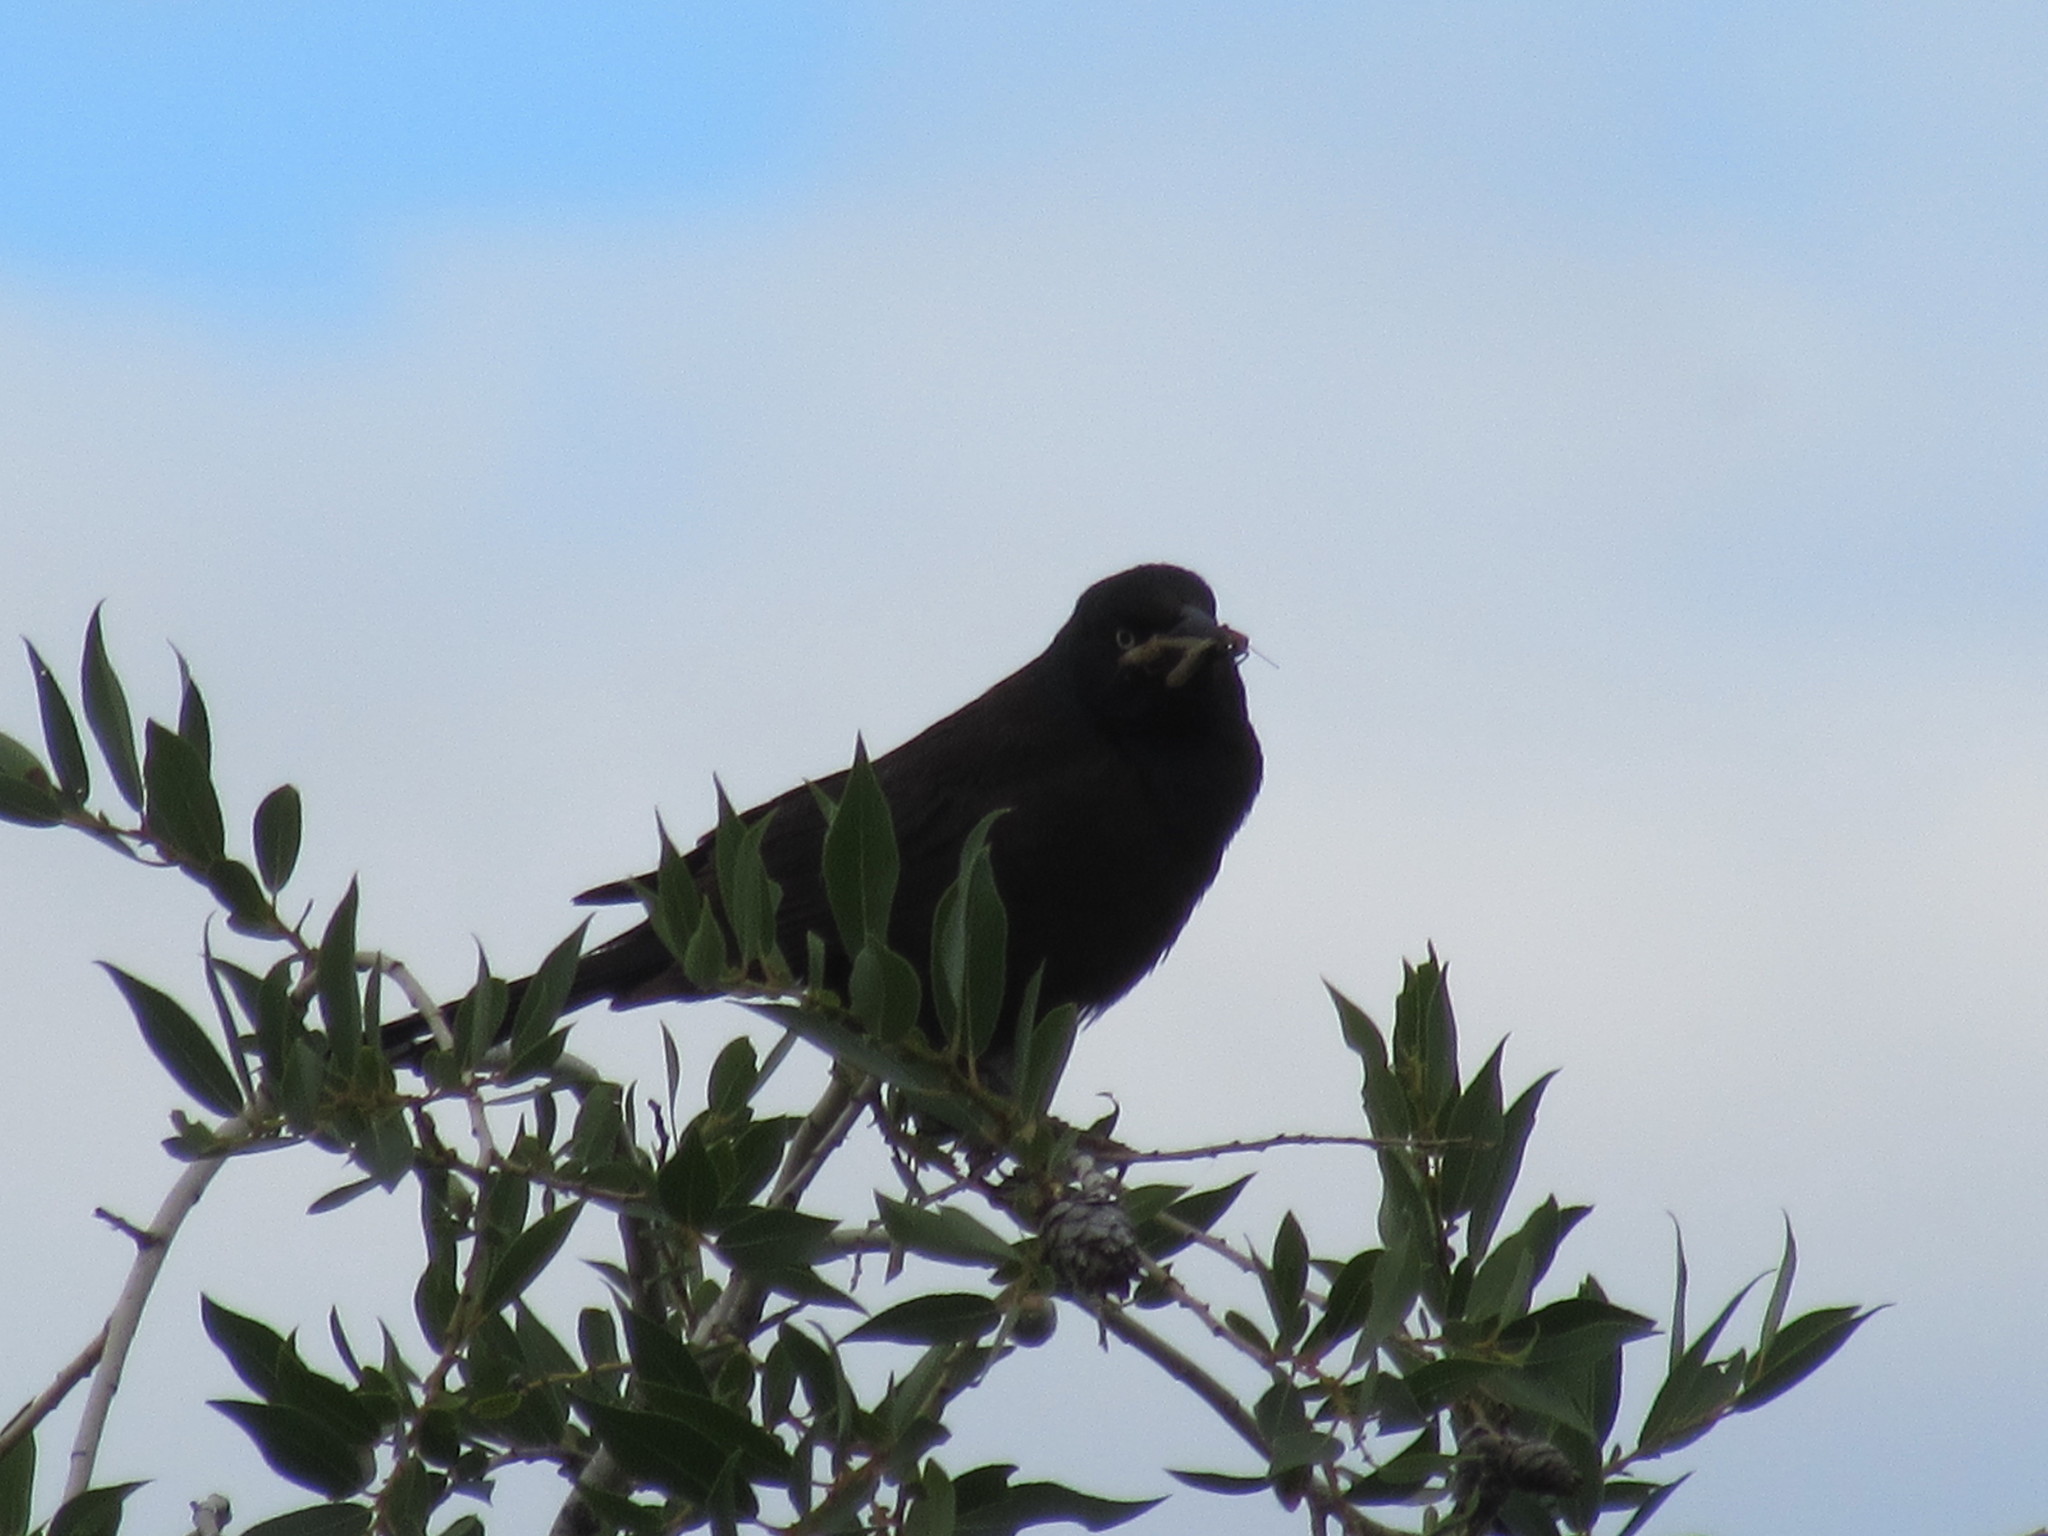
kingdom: Animalia
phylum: Chordata
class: Aves
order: Passeriformes
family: Icteridae
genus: Euphagus
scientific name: Euphagus cyanocephalus
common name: Brewer's blackbird
